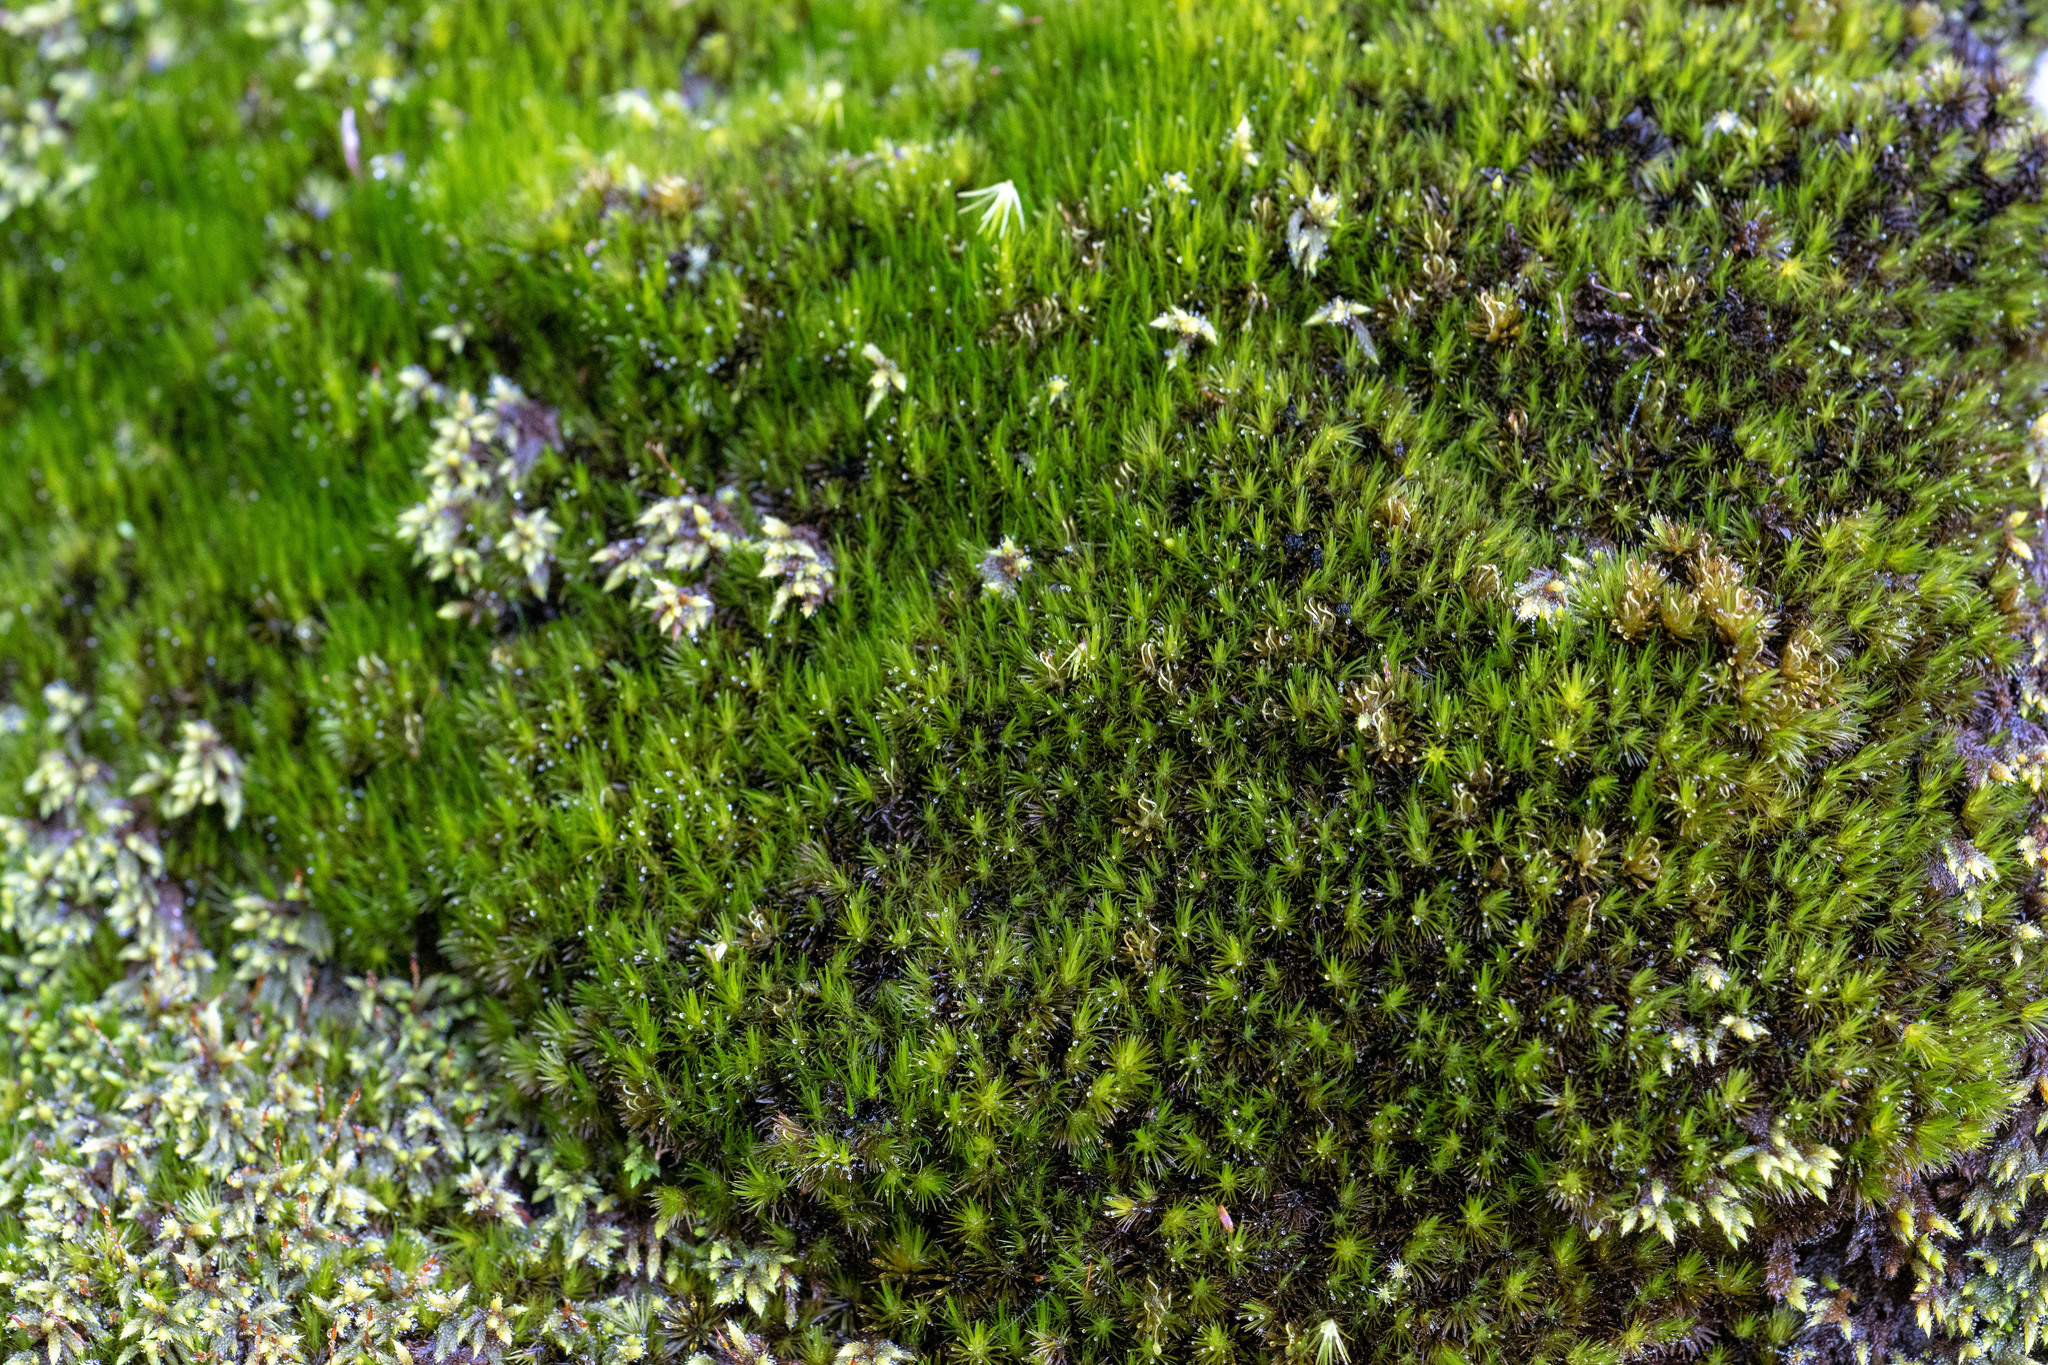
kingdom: Plantae
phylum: Bryophyta
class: Bryopsida
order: Dicranales
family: Leucobryaceae
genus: Campylopus
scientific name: Campylopus bicolor
